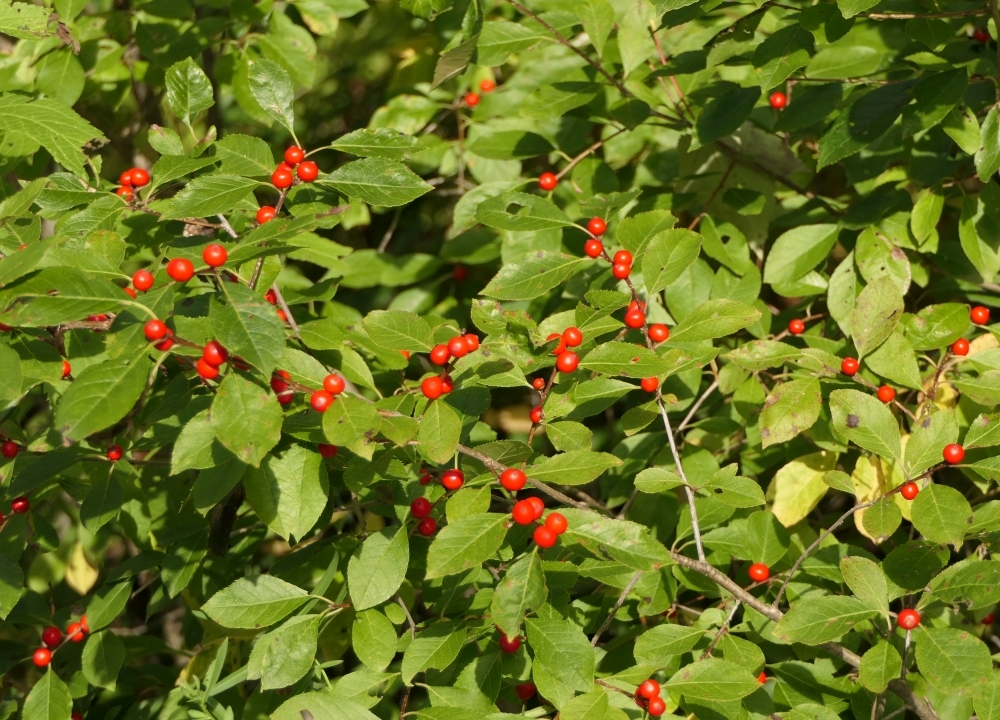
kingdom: Plantae
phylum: Tracheophyta
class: Magnoliopsida
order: Aquifoliales
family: Aquifoliaceae
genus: Ilex
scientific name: Ilex verticillata
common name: Virginia winterberry
